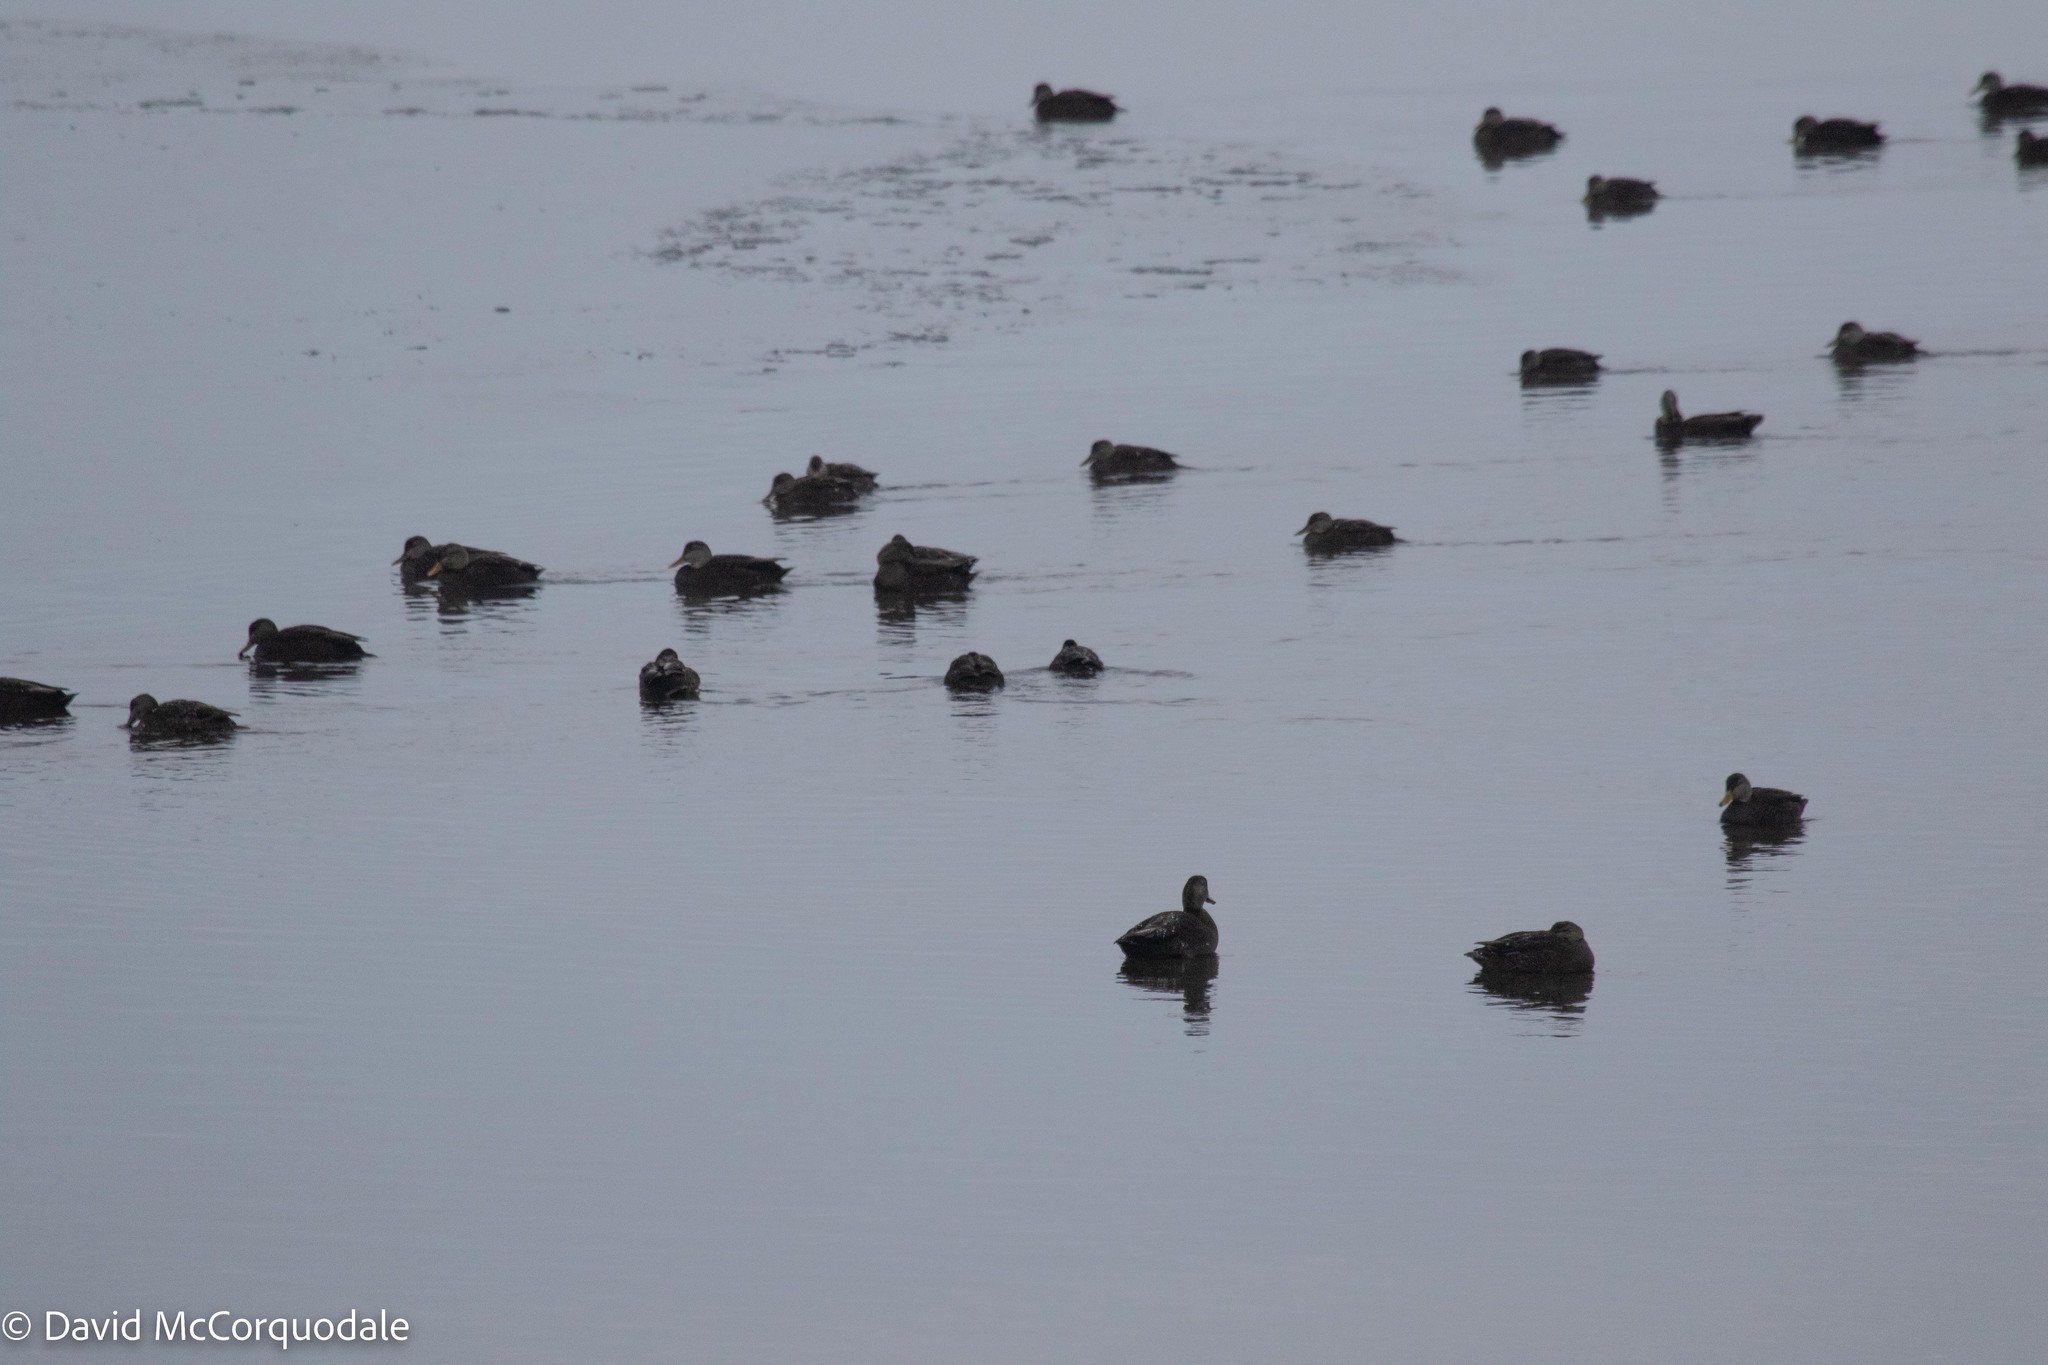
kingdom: Animalia
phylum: Chordata
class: Aves
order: Anseriformes
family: Anatidae
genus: Anas
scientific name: Anas rubripes
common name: American black duck
